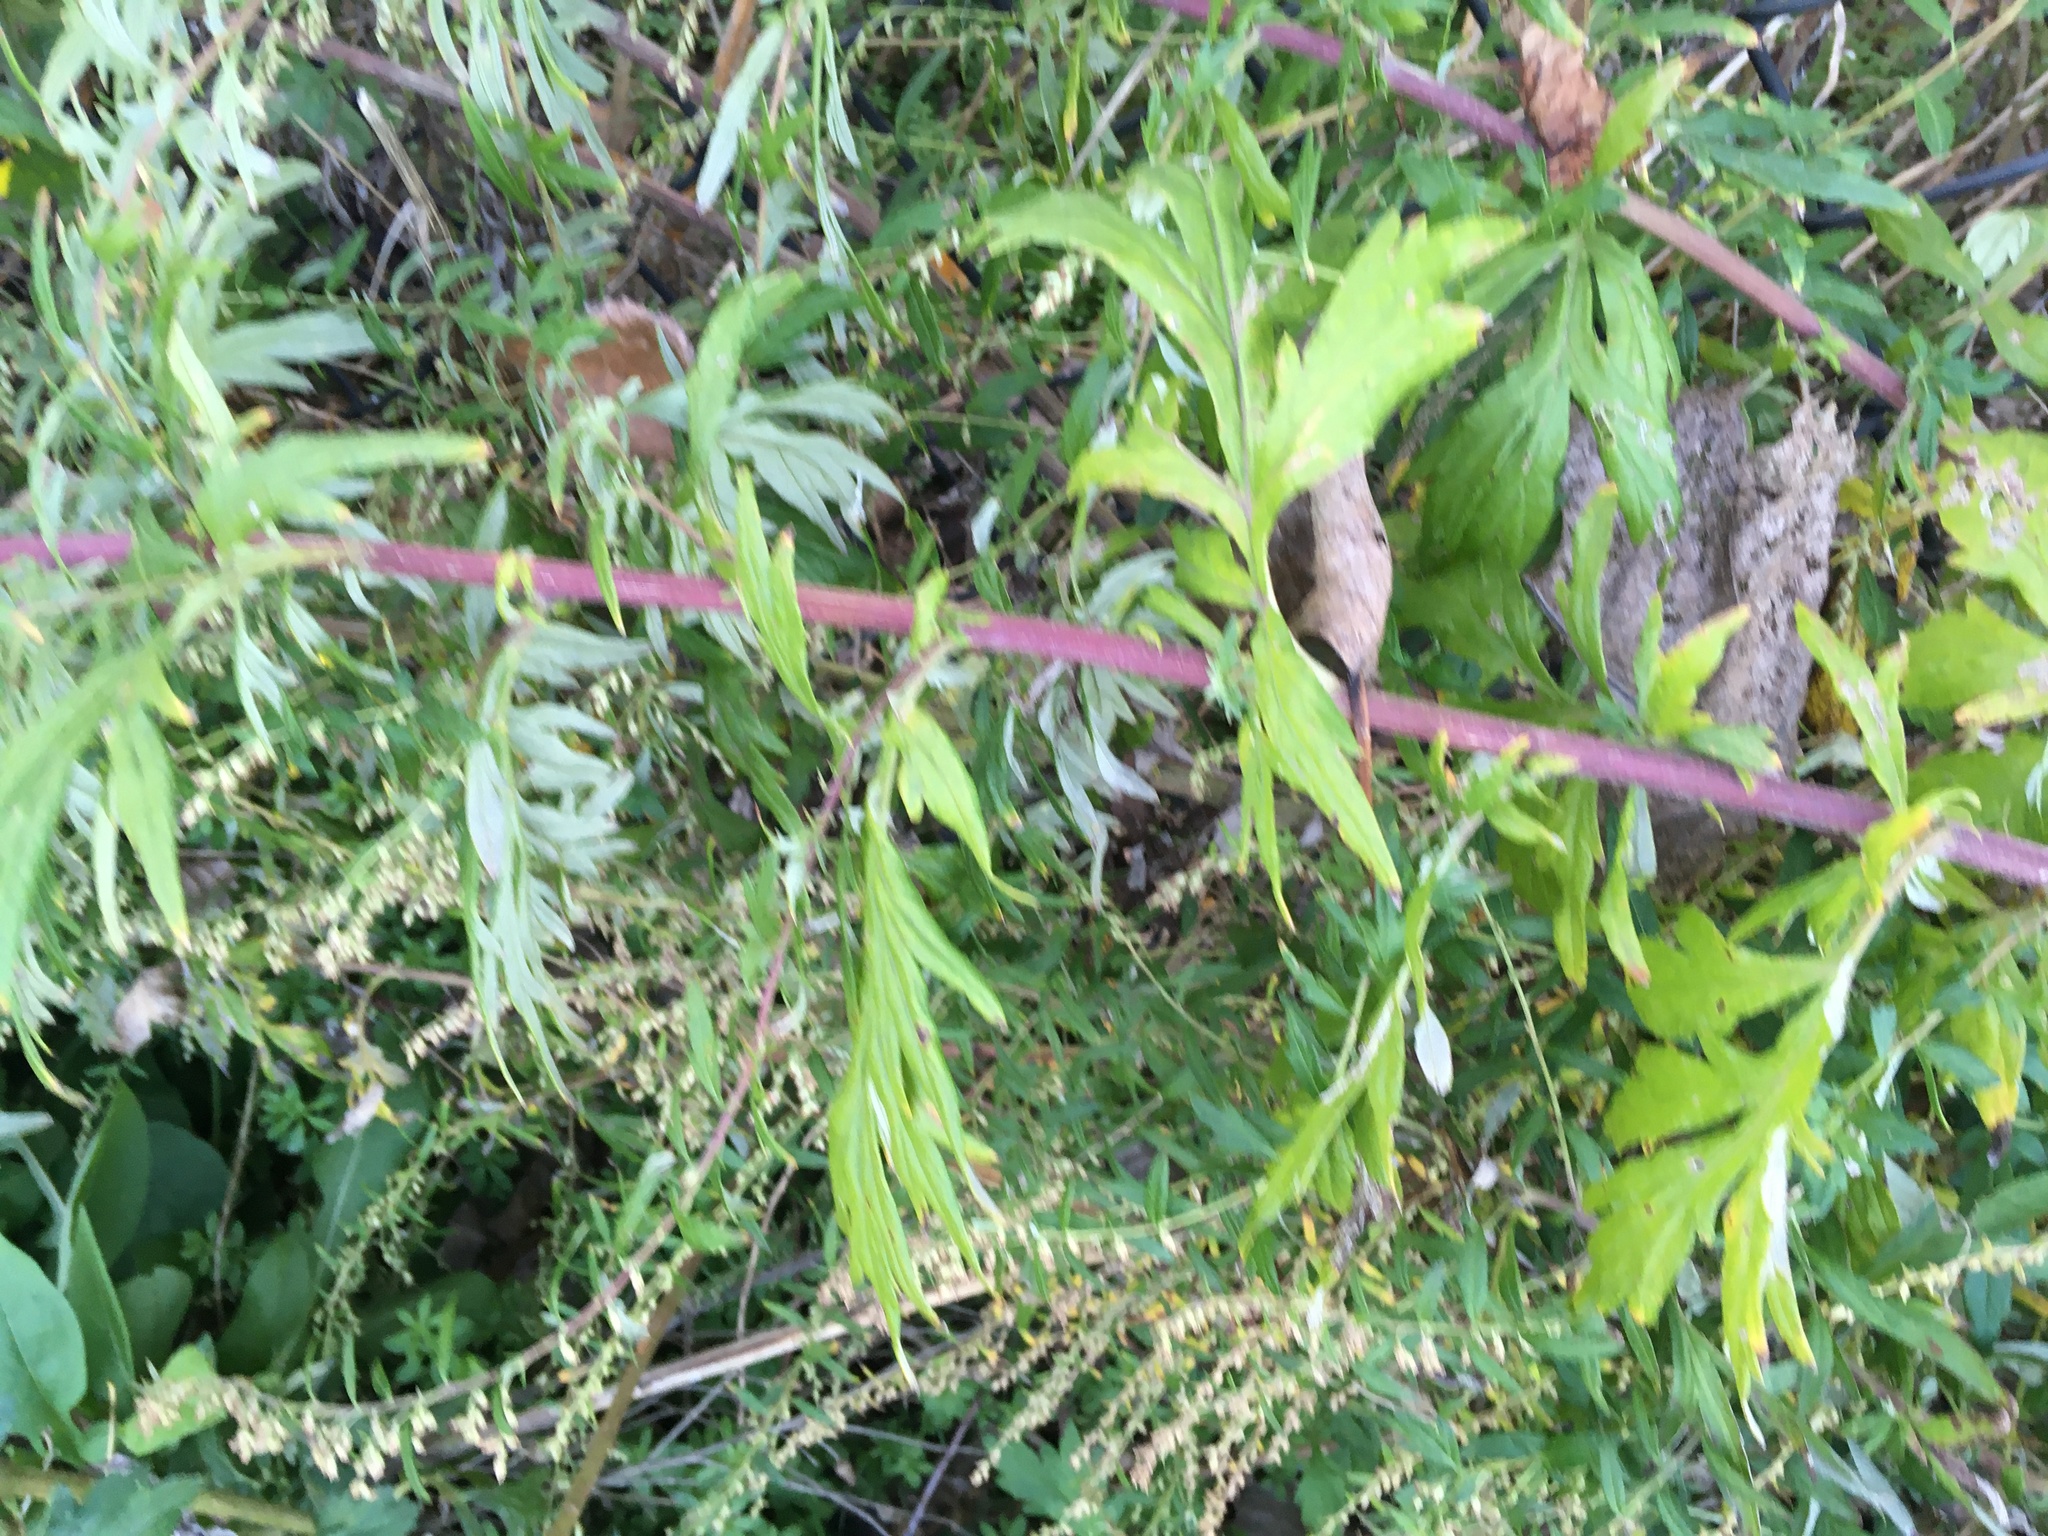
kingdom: Plantae
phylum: Tracheophyta
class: Magnoliopsida
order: Asterales
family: Asteraceae
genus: Artemisia
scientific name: Artemisia vulgaris
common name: Mugwort
